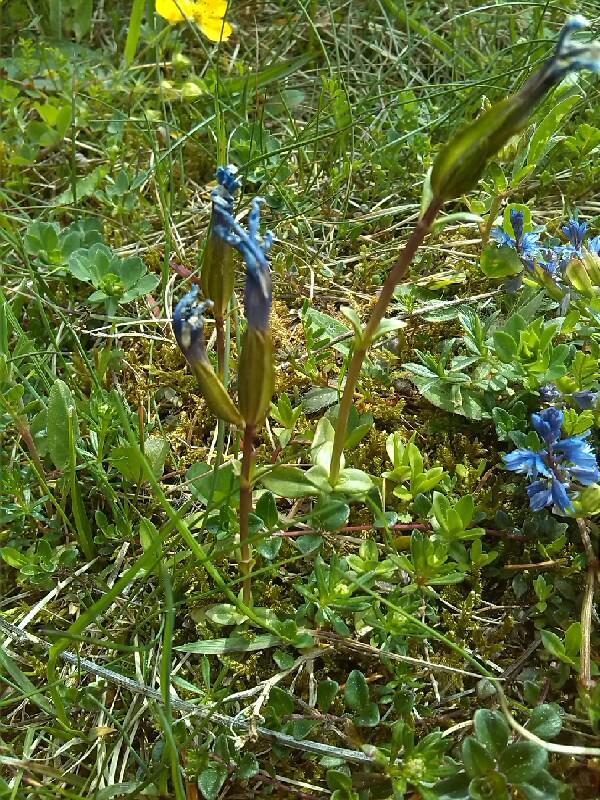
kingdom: Plantae
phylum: Tracheophyta
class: Magnoliopsida
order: Gentianales
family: Gentianaceae
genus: Gentiana
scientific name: Gentiana verna
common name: Spring gentian
